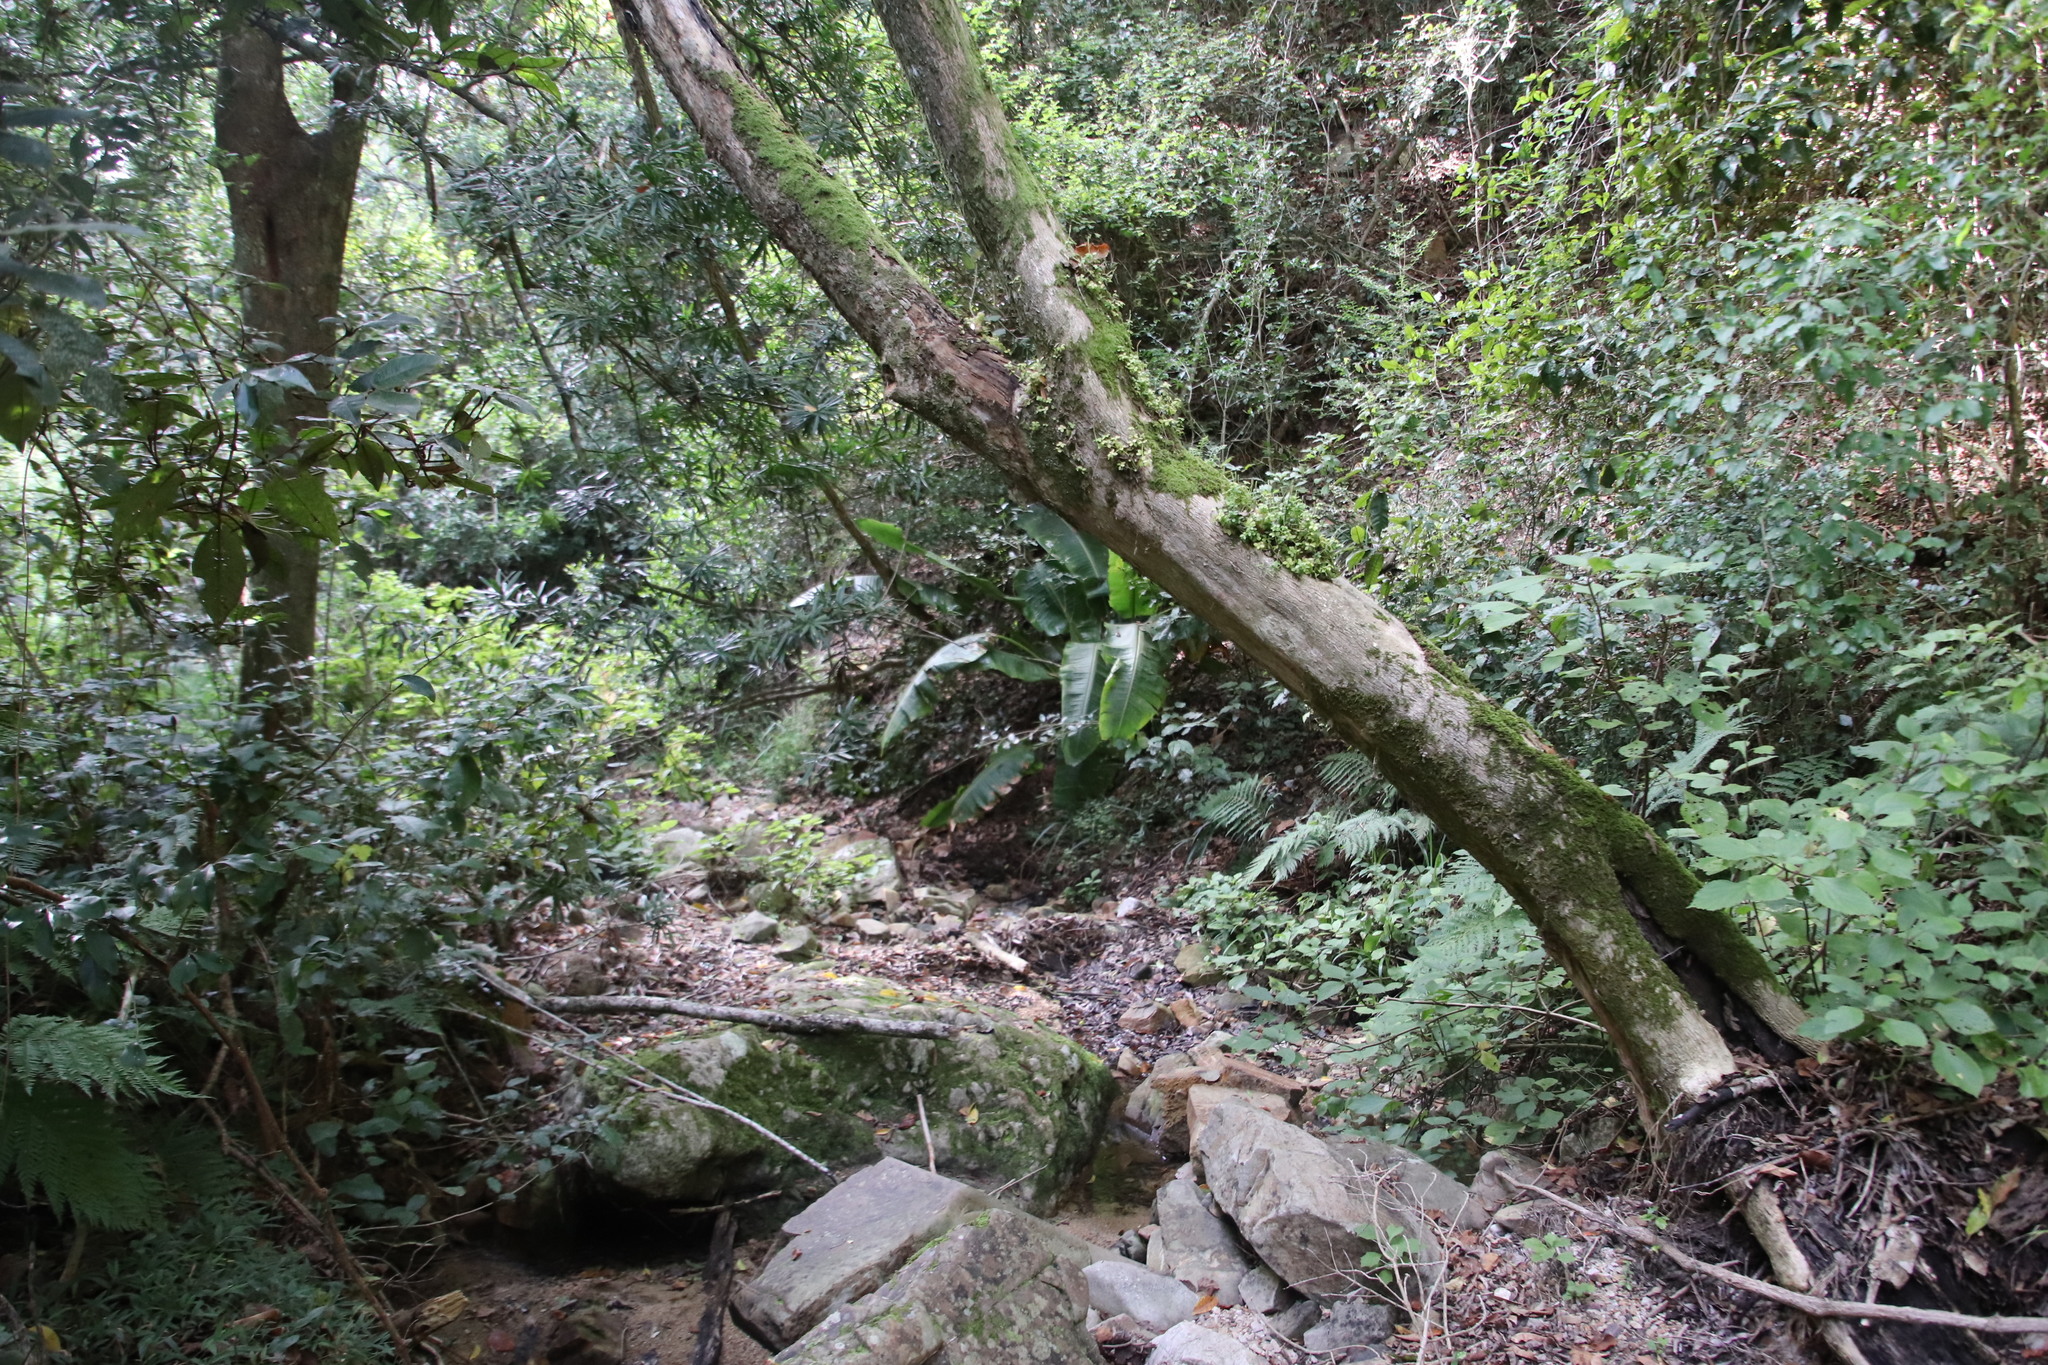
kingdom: Plantae
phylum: Tracheophyta
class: Liliopsida
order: Zingiberales
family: Strelitziaceae
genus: Strelitzia
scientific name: Strelitzia alba
